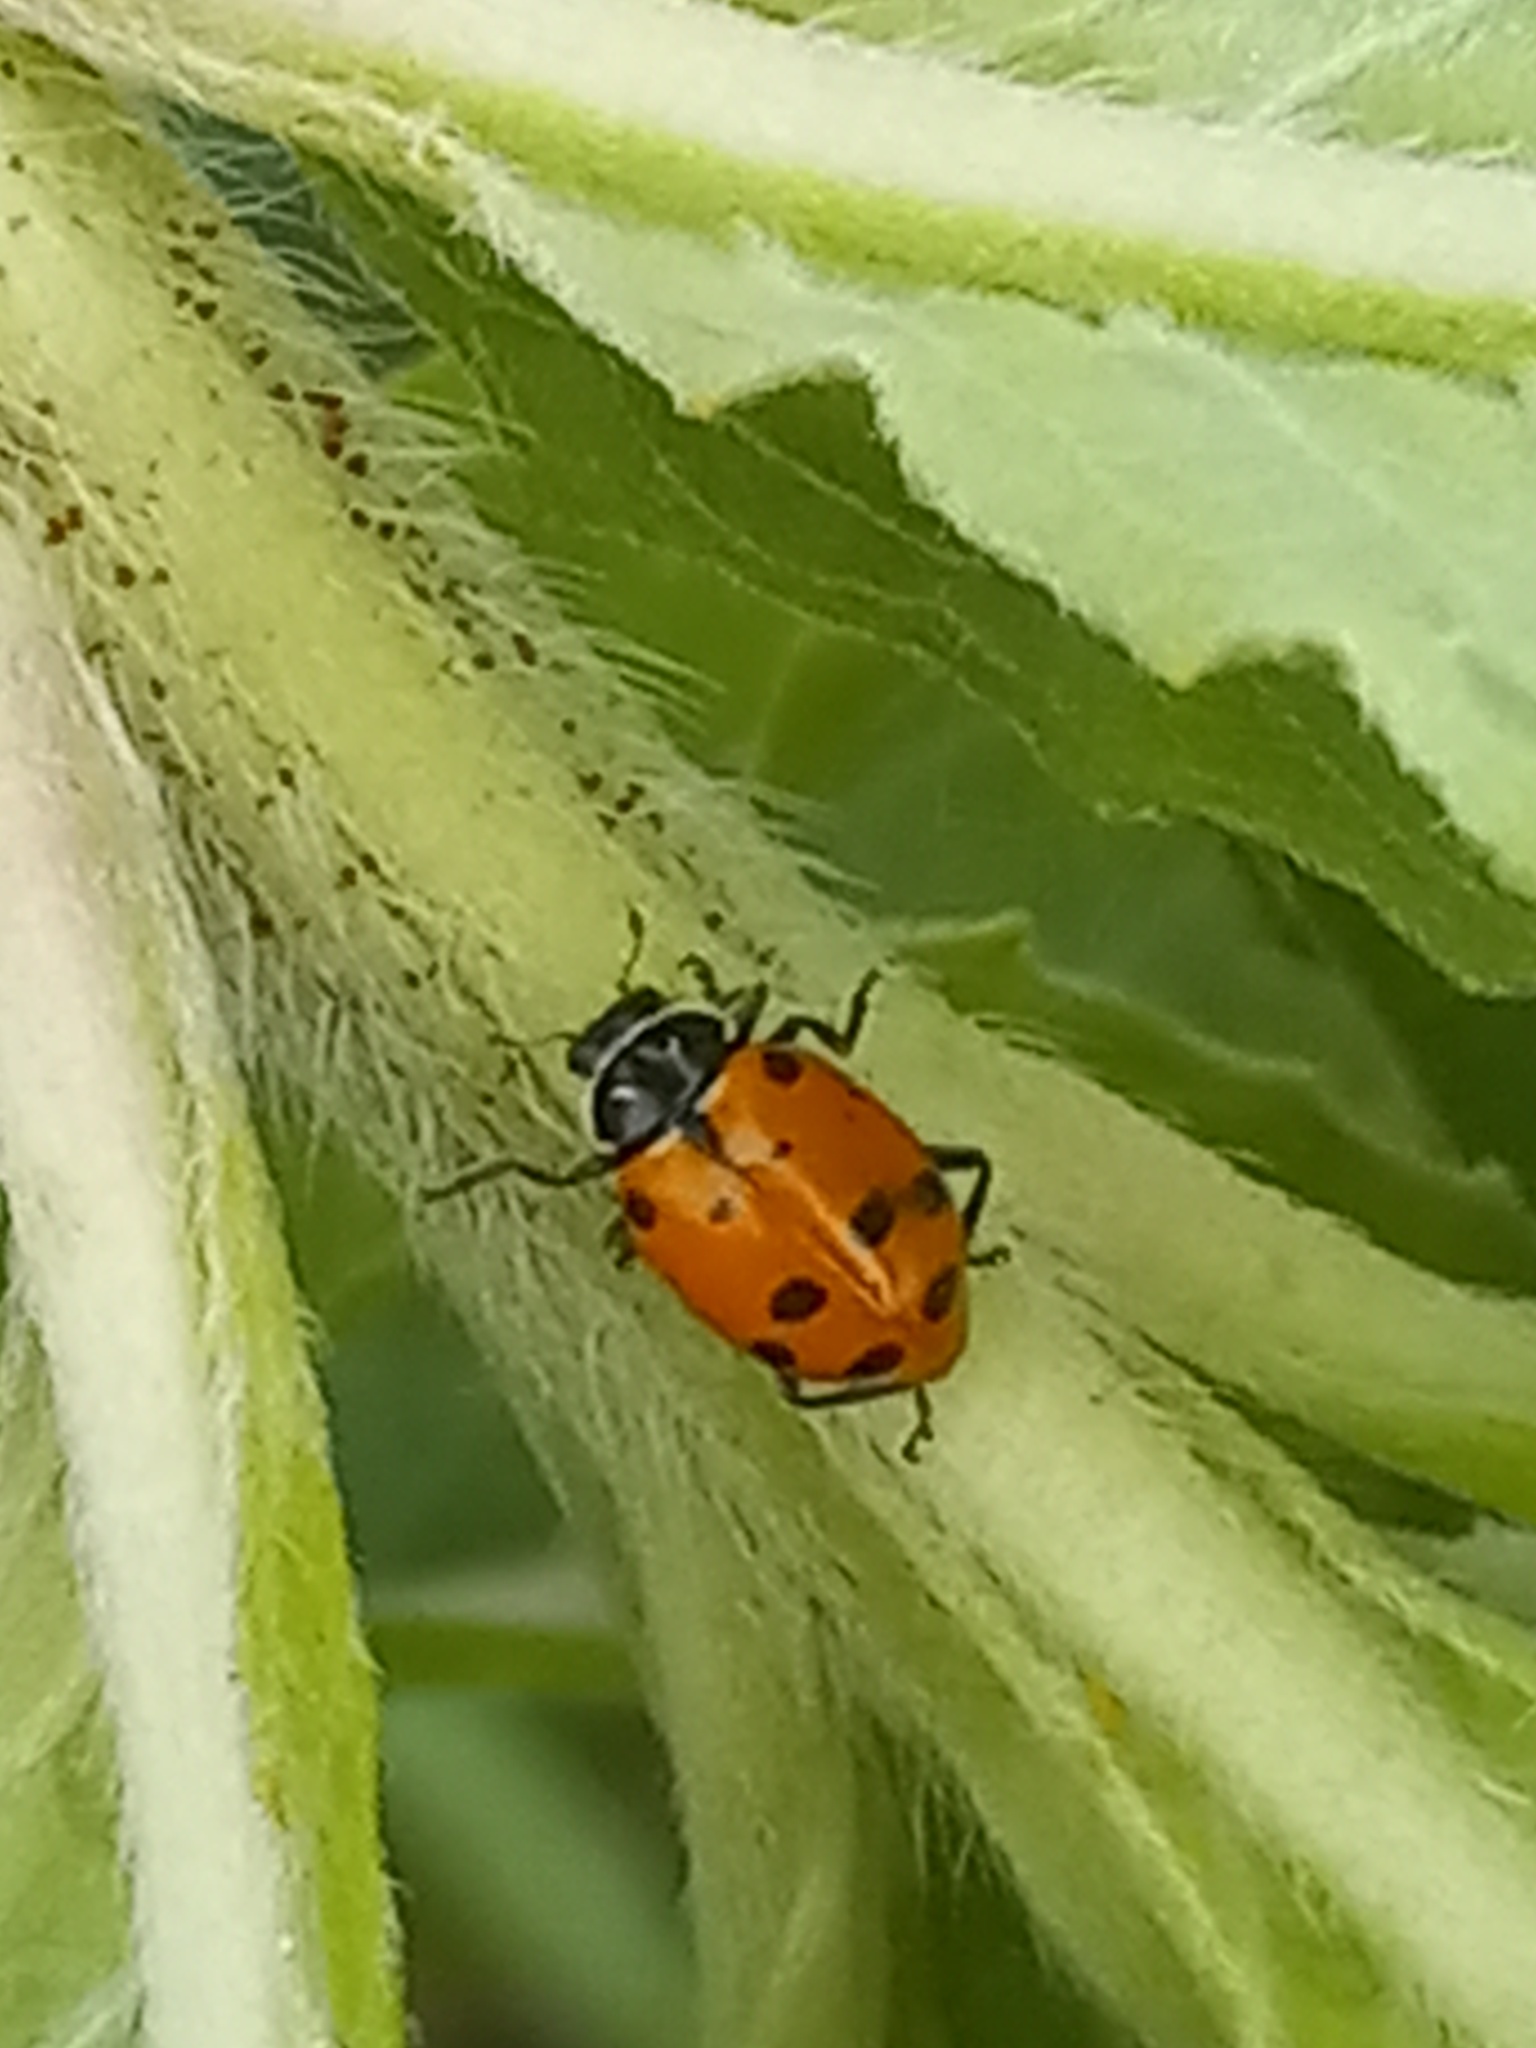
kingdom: Animalia
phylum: Arthropoda
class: Insecta
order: Coleoptera
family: Coccinellidae
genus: Hippodamia
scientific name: Hippodamia convergens
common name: Convergent lady beetle
